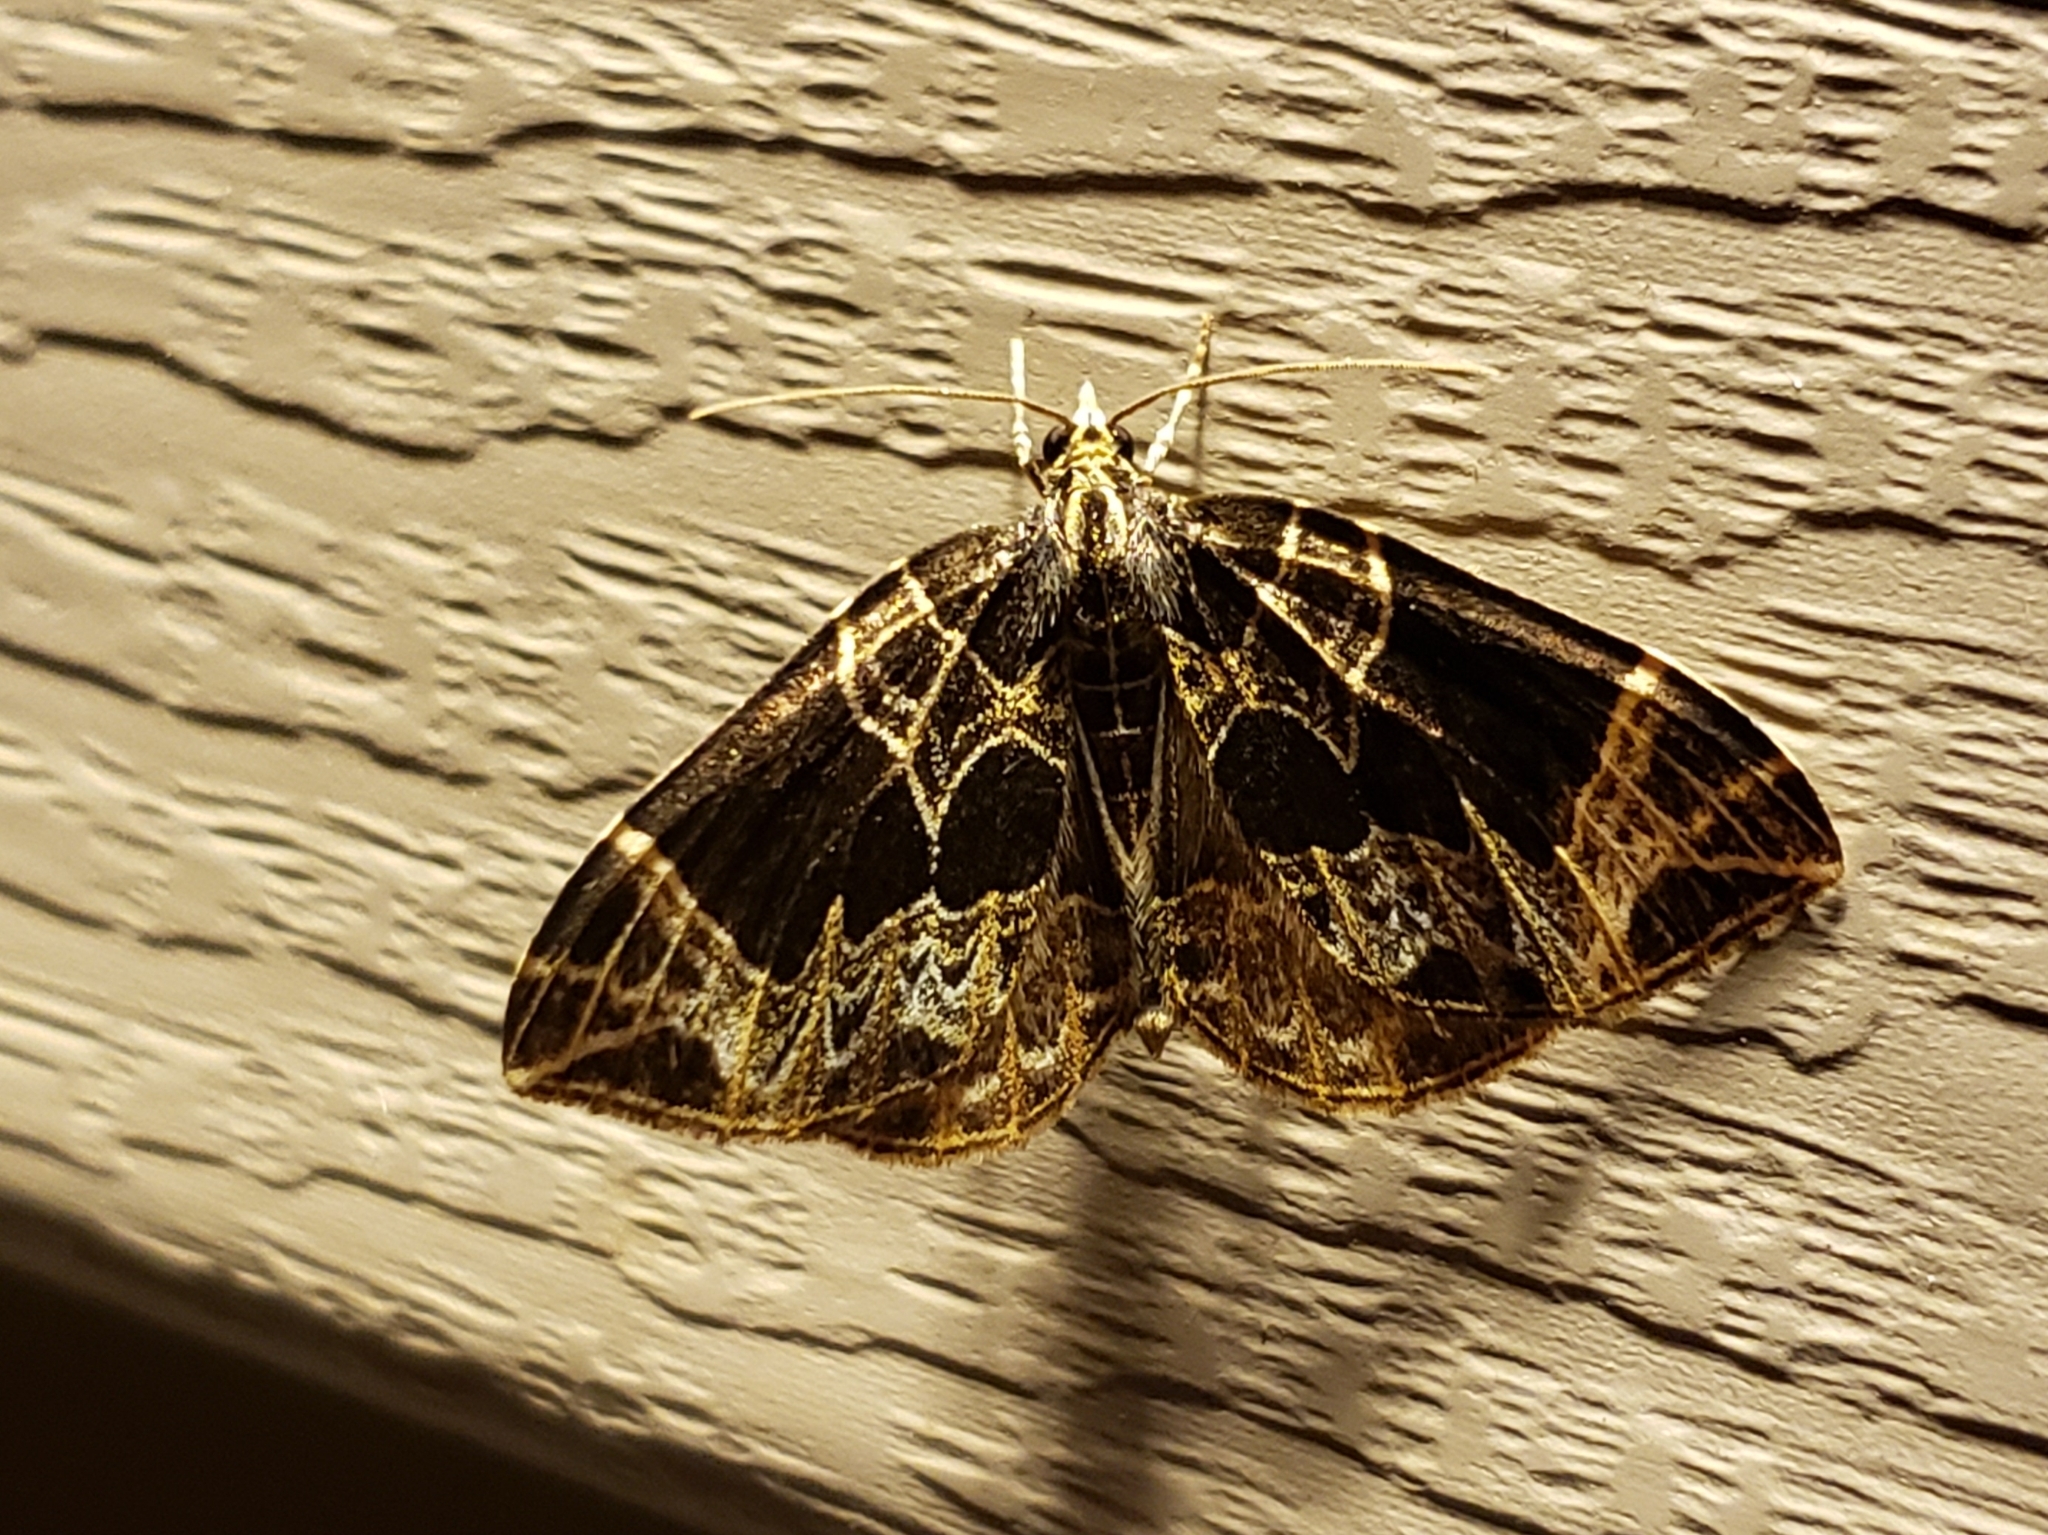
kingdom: Animalia
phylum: Arthropoda
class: Insecta
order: Lepidoptera
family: Geometridae
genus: Ecliptopera
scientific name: Ecliptopera atricolorata
